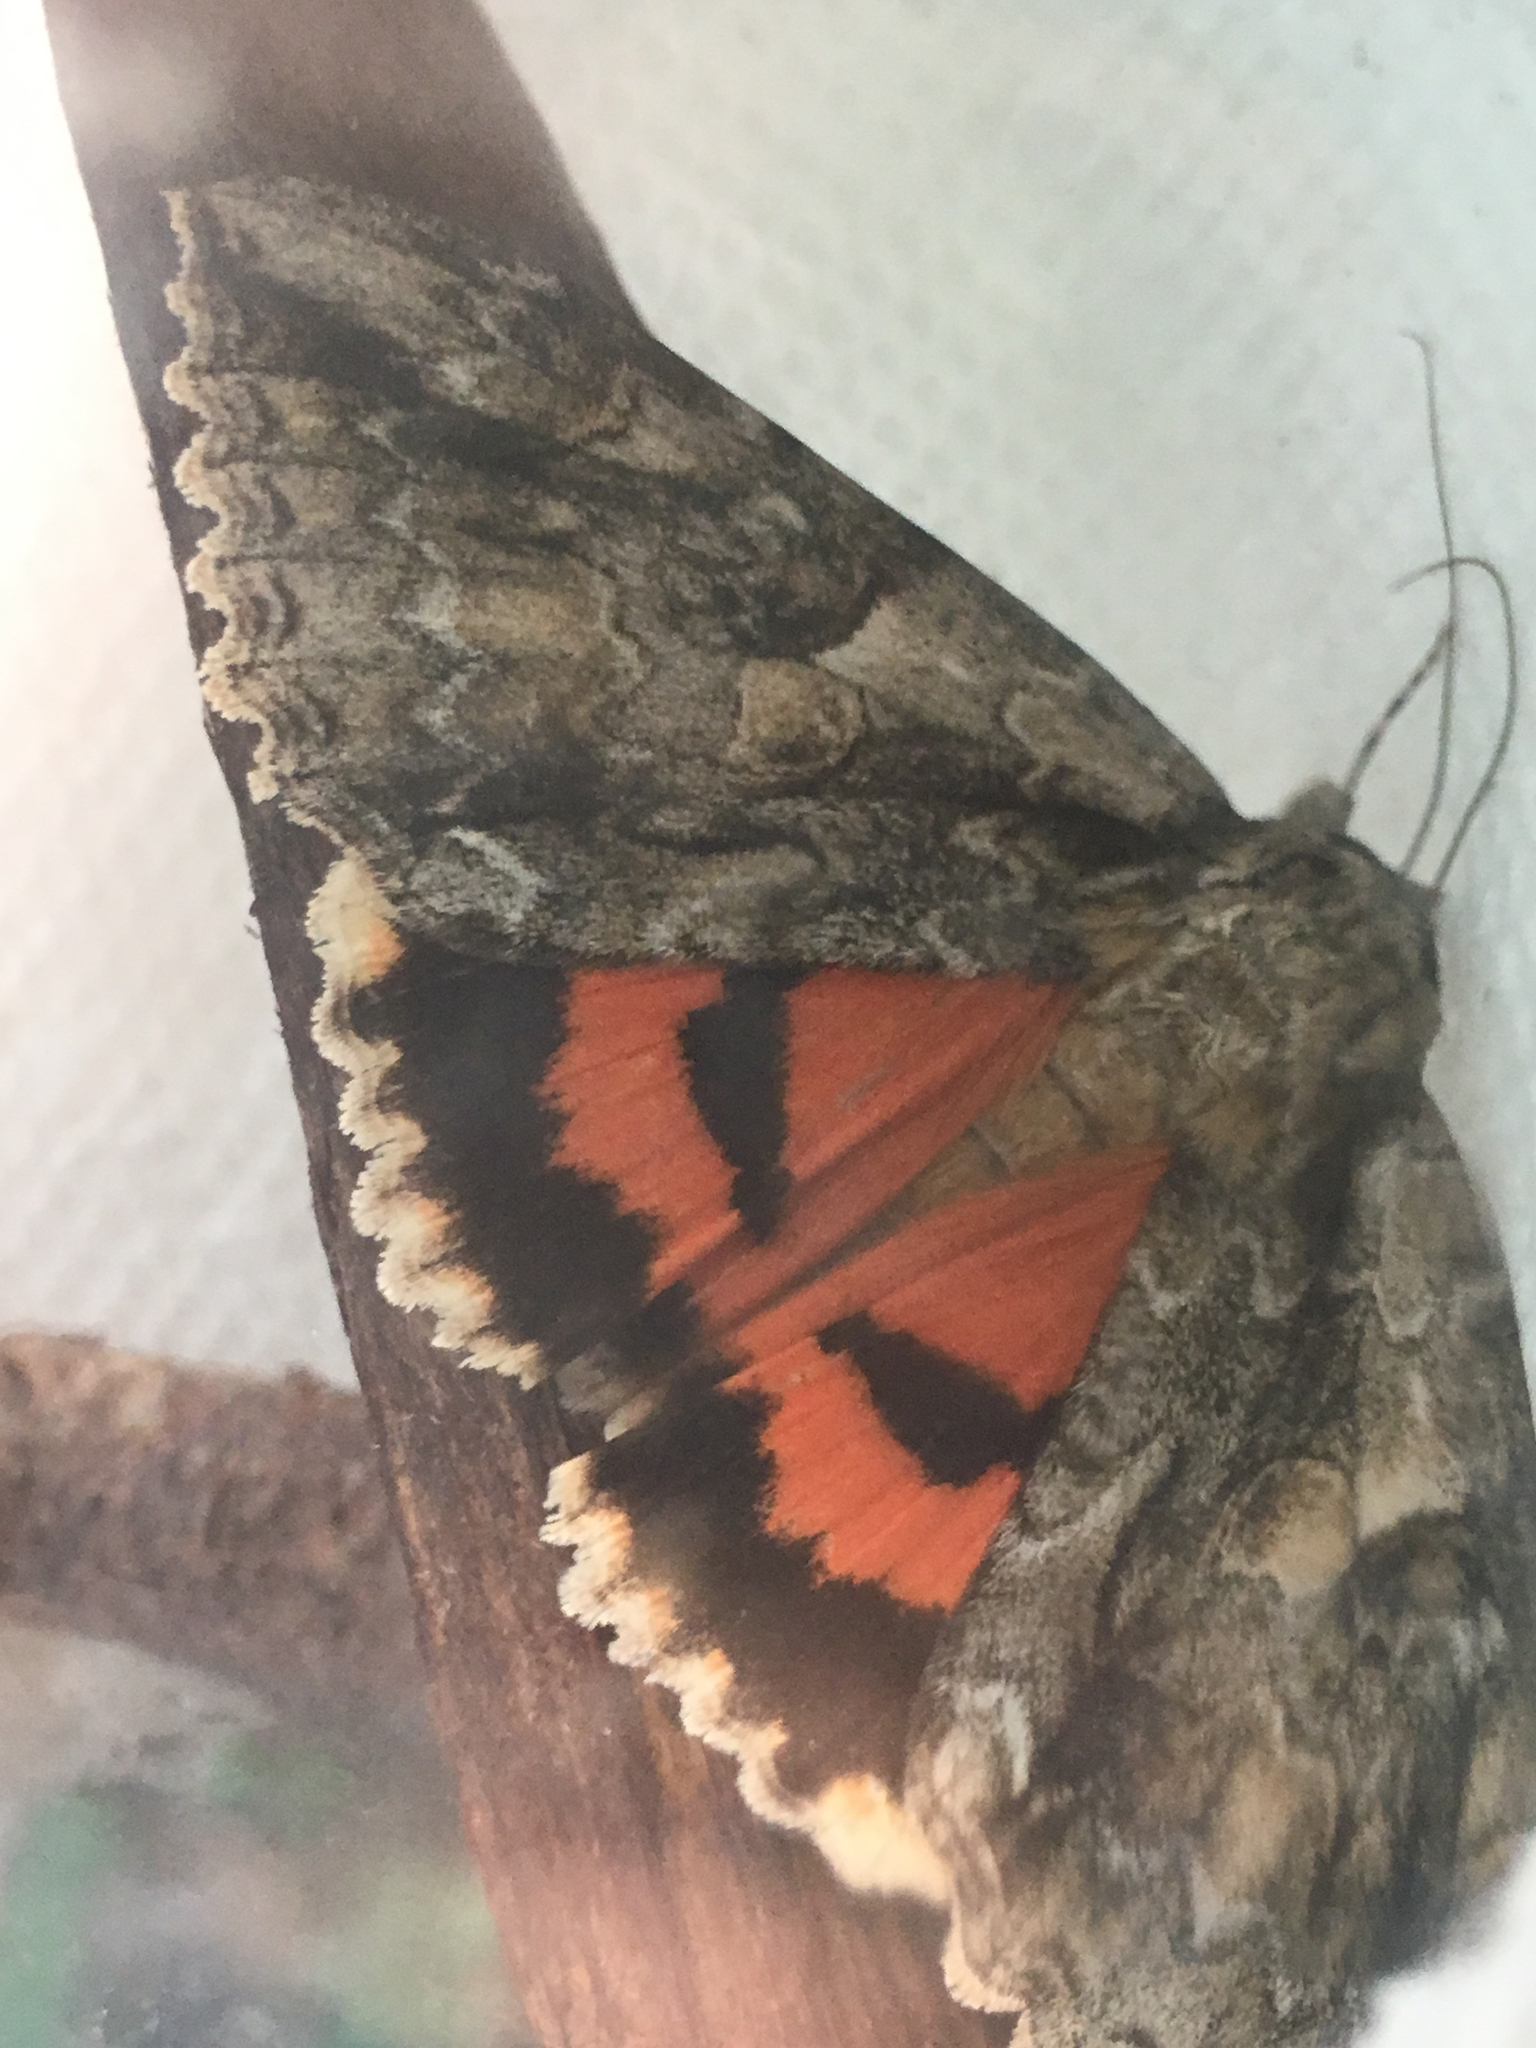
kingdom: Animalia
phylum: Arthropoda
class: Insecta
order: Lepidoptera
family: Erebidae
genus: Catocala
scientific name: Catocala parta
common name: Mother underwing
